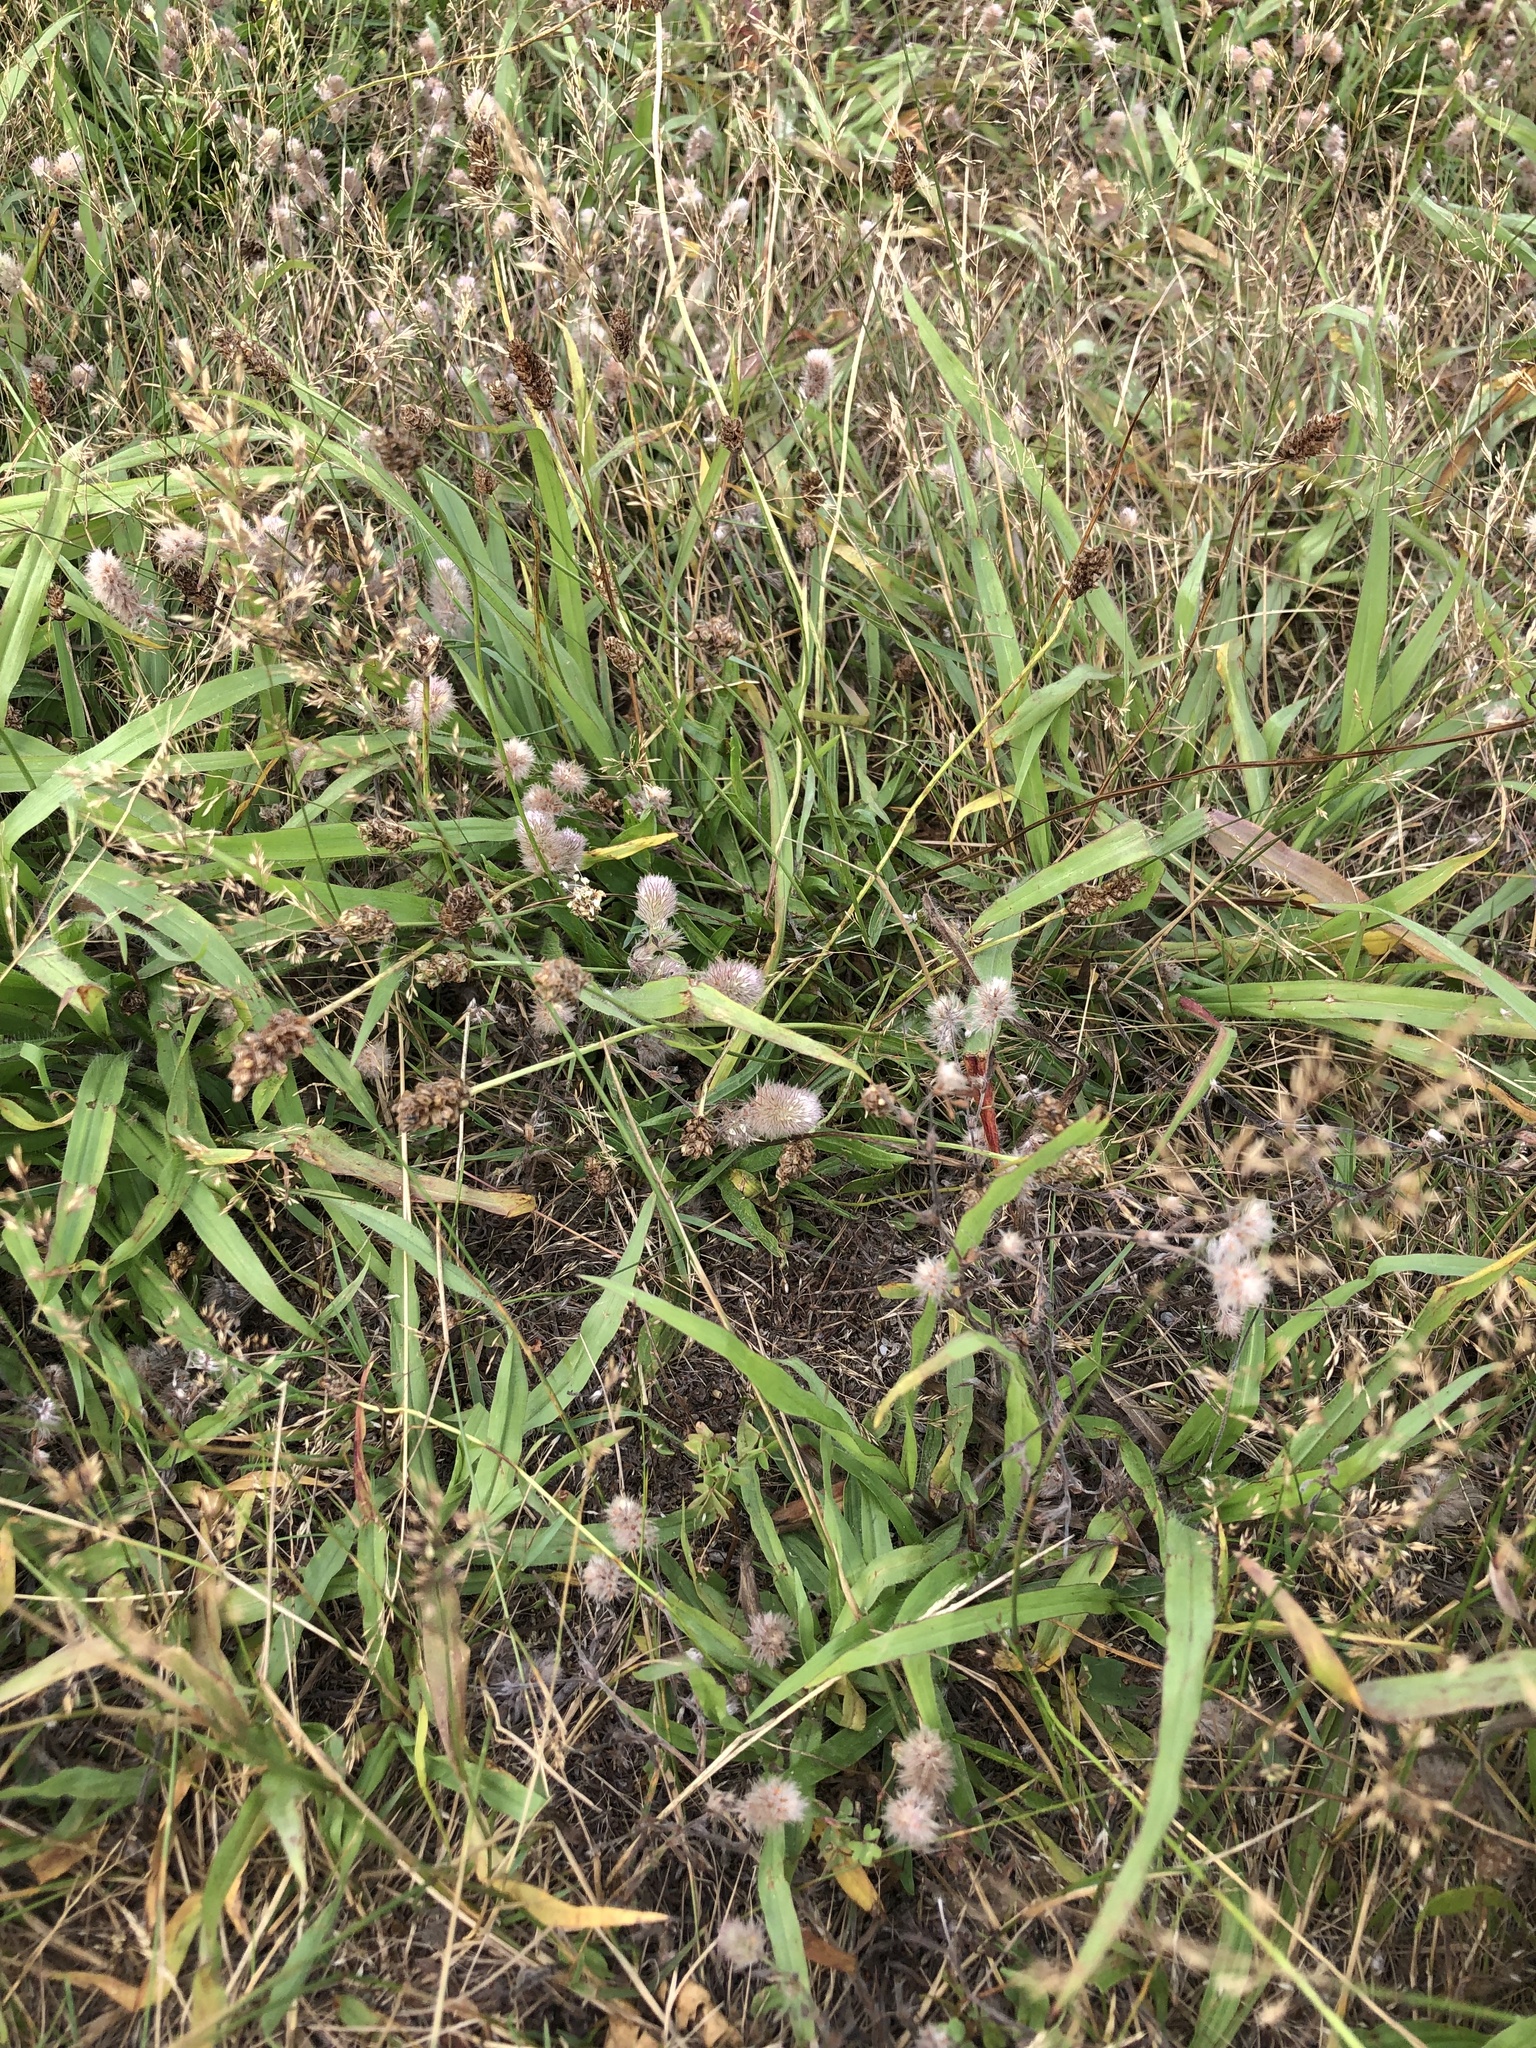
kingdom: Plantae
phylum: Tracheophyta
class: Magnoliopsida
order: Fabales
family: Fabaceae
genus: Trifolium
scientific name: Trifolium arvense
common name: Hare's-foot clover
